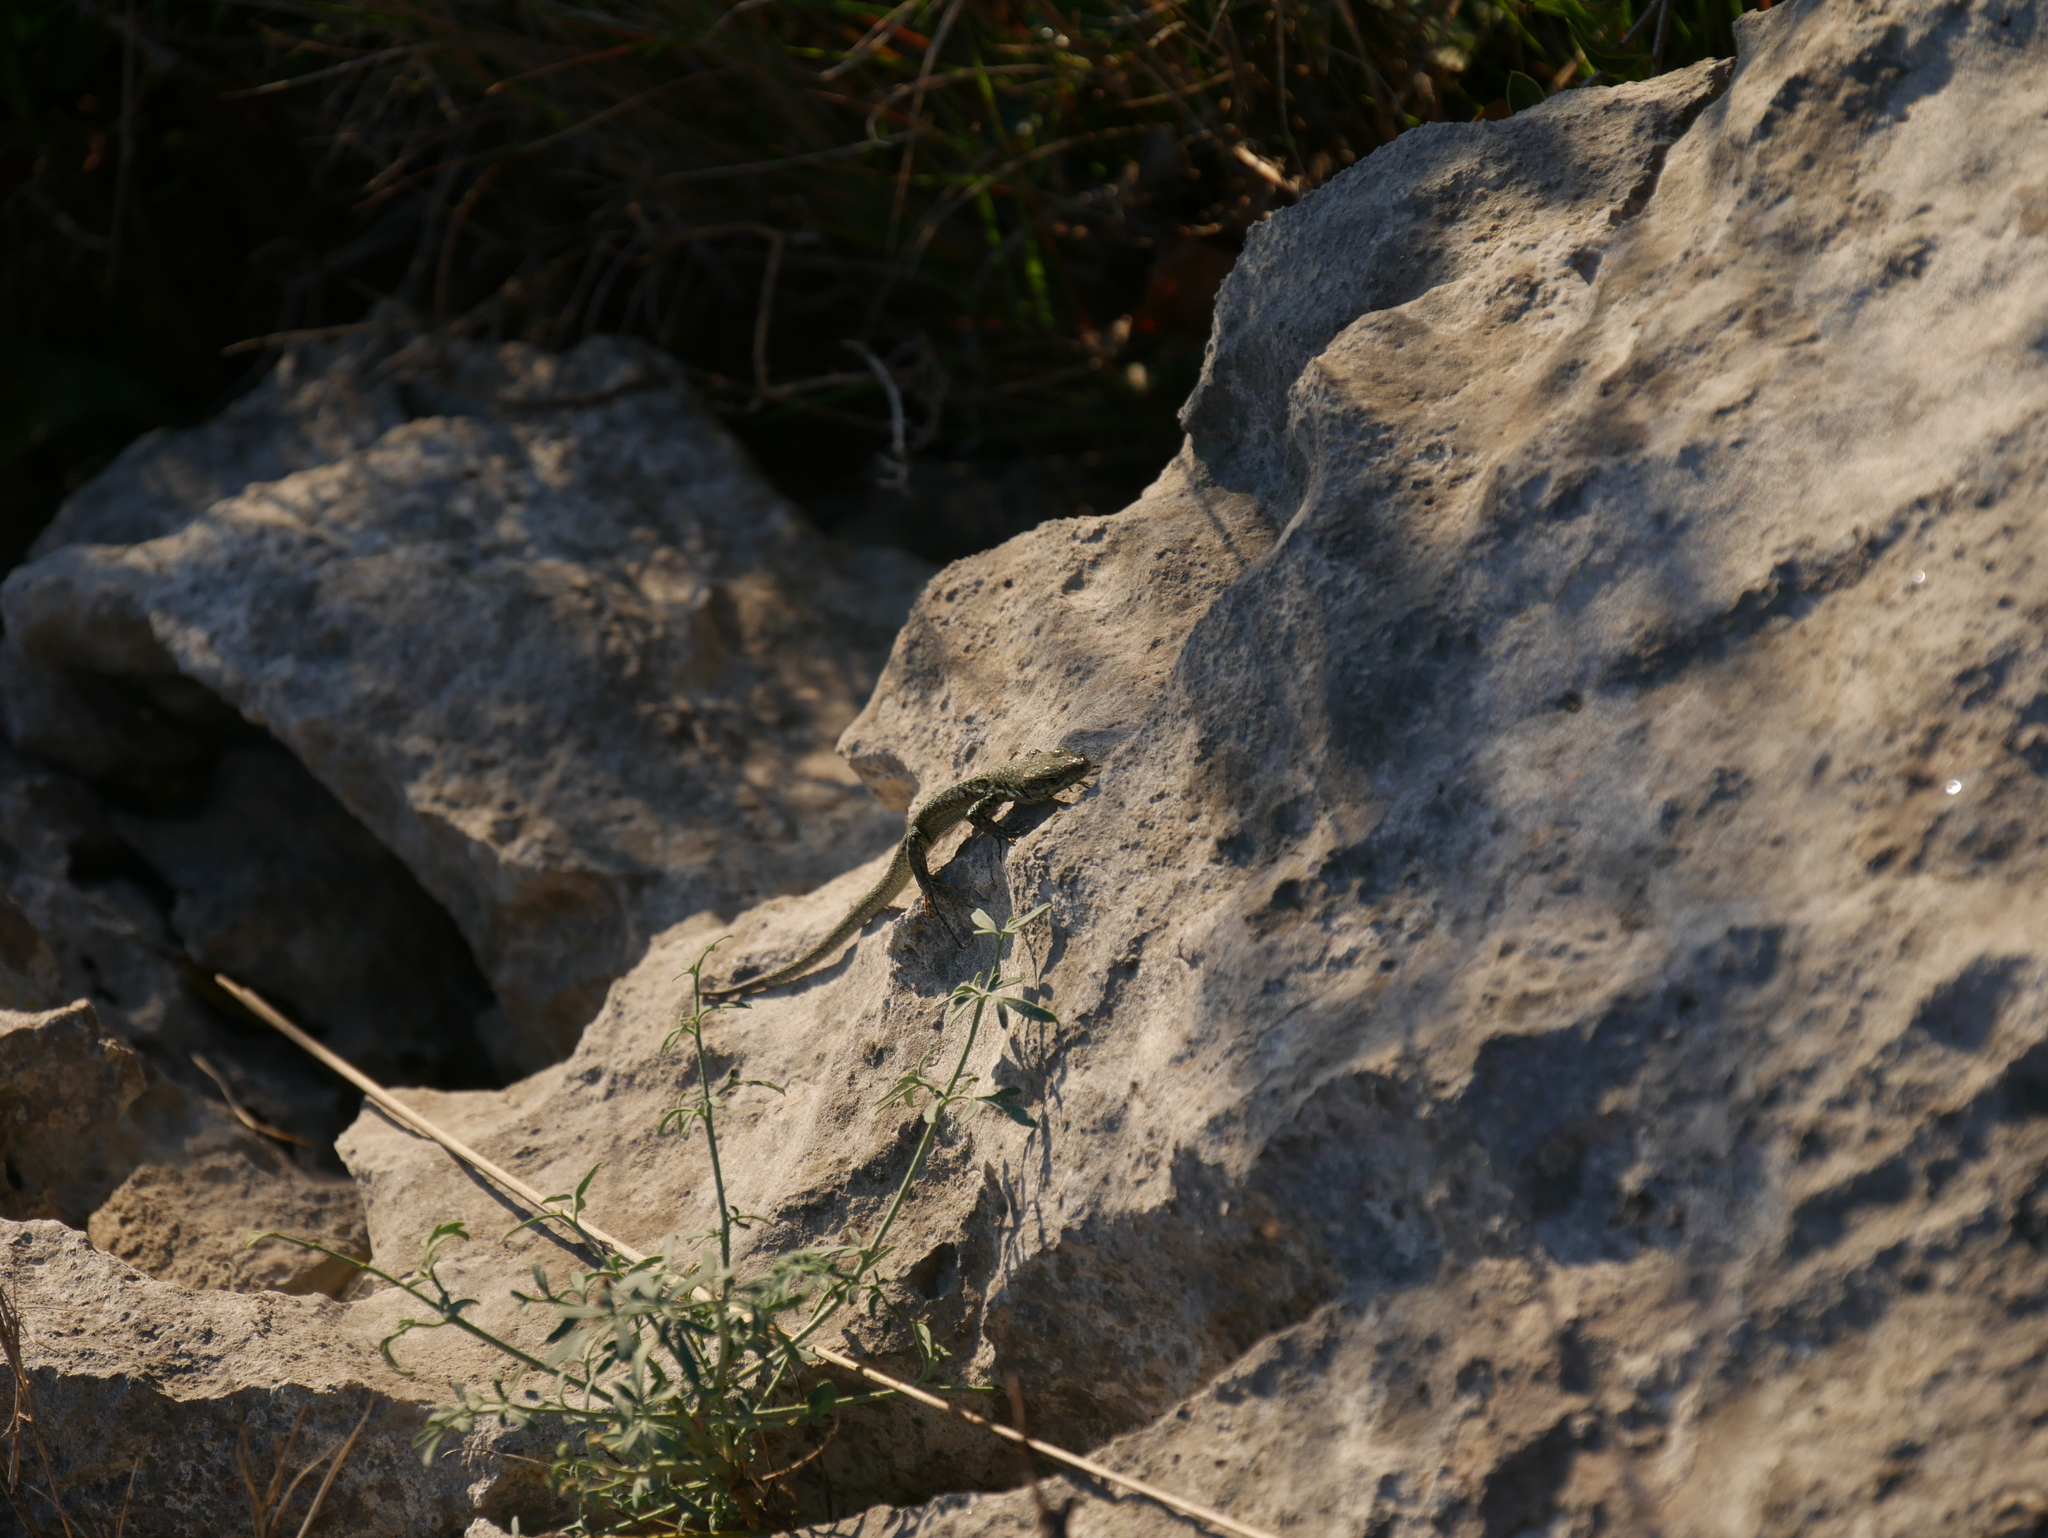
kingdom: Animalia
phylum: Chordata
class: Squamata
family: Lacertidae
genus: Podarcis
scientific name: Podarcis liolepis
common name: Catalonian wall lizard
